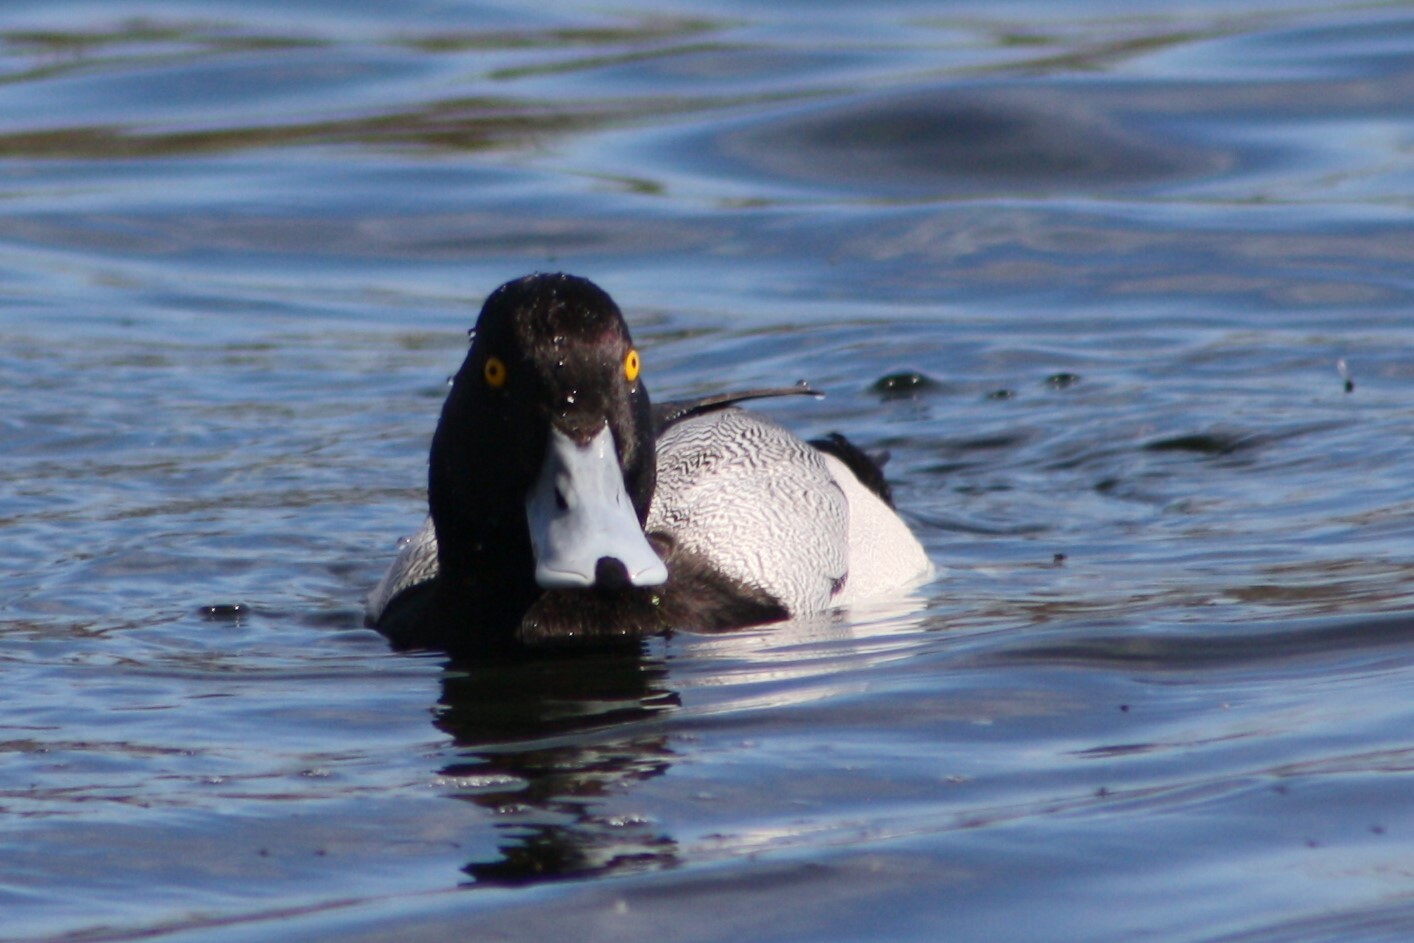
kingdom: Animalia
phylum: Chordata
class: Aves
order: Anseriformes
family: Anatidae
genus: Aythya
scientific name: Aythya affinis
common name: Lesser scaup
